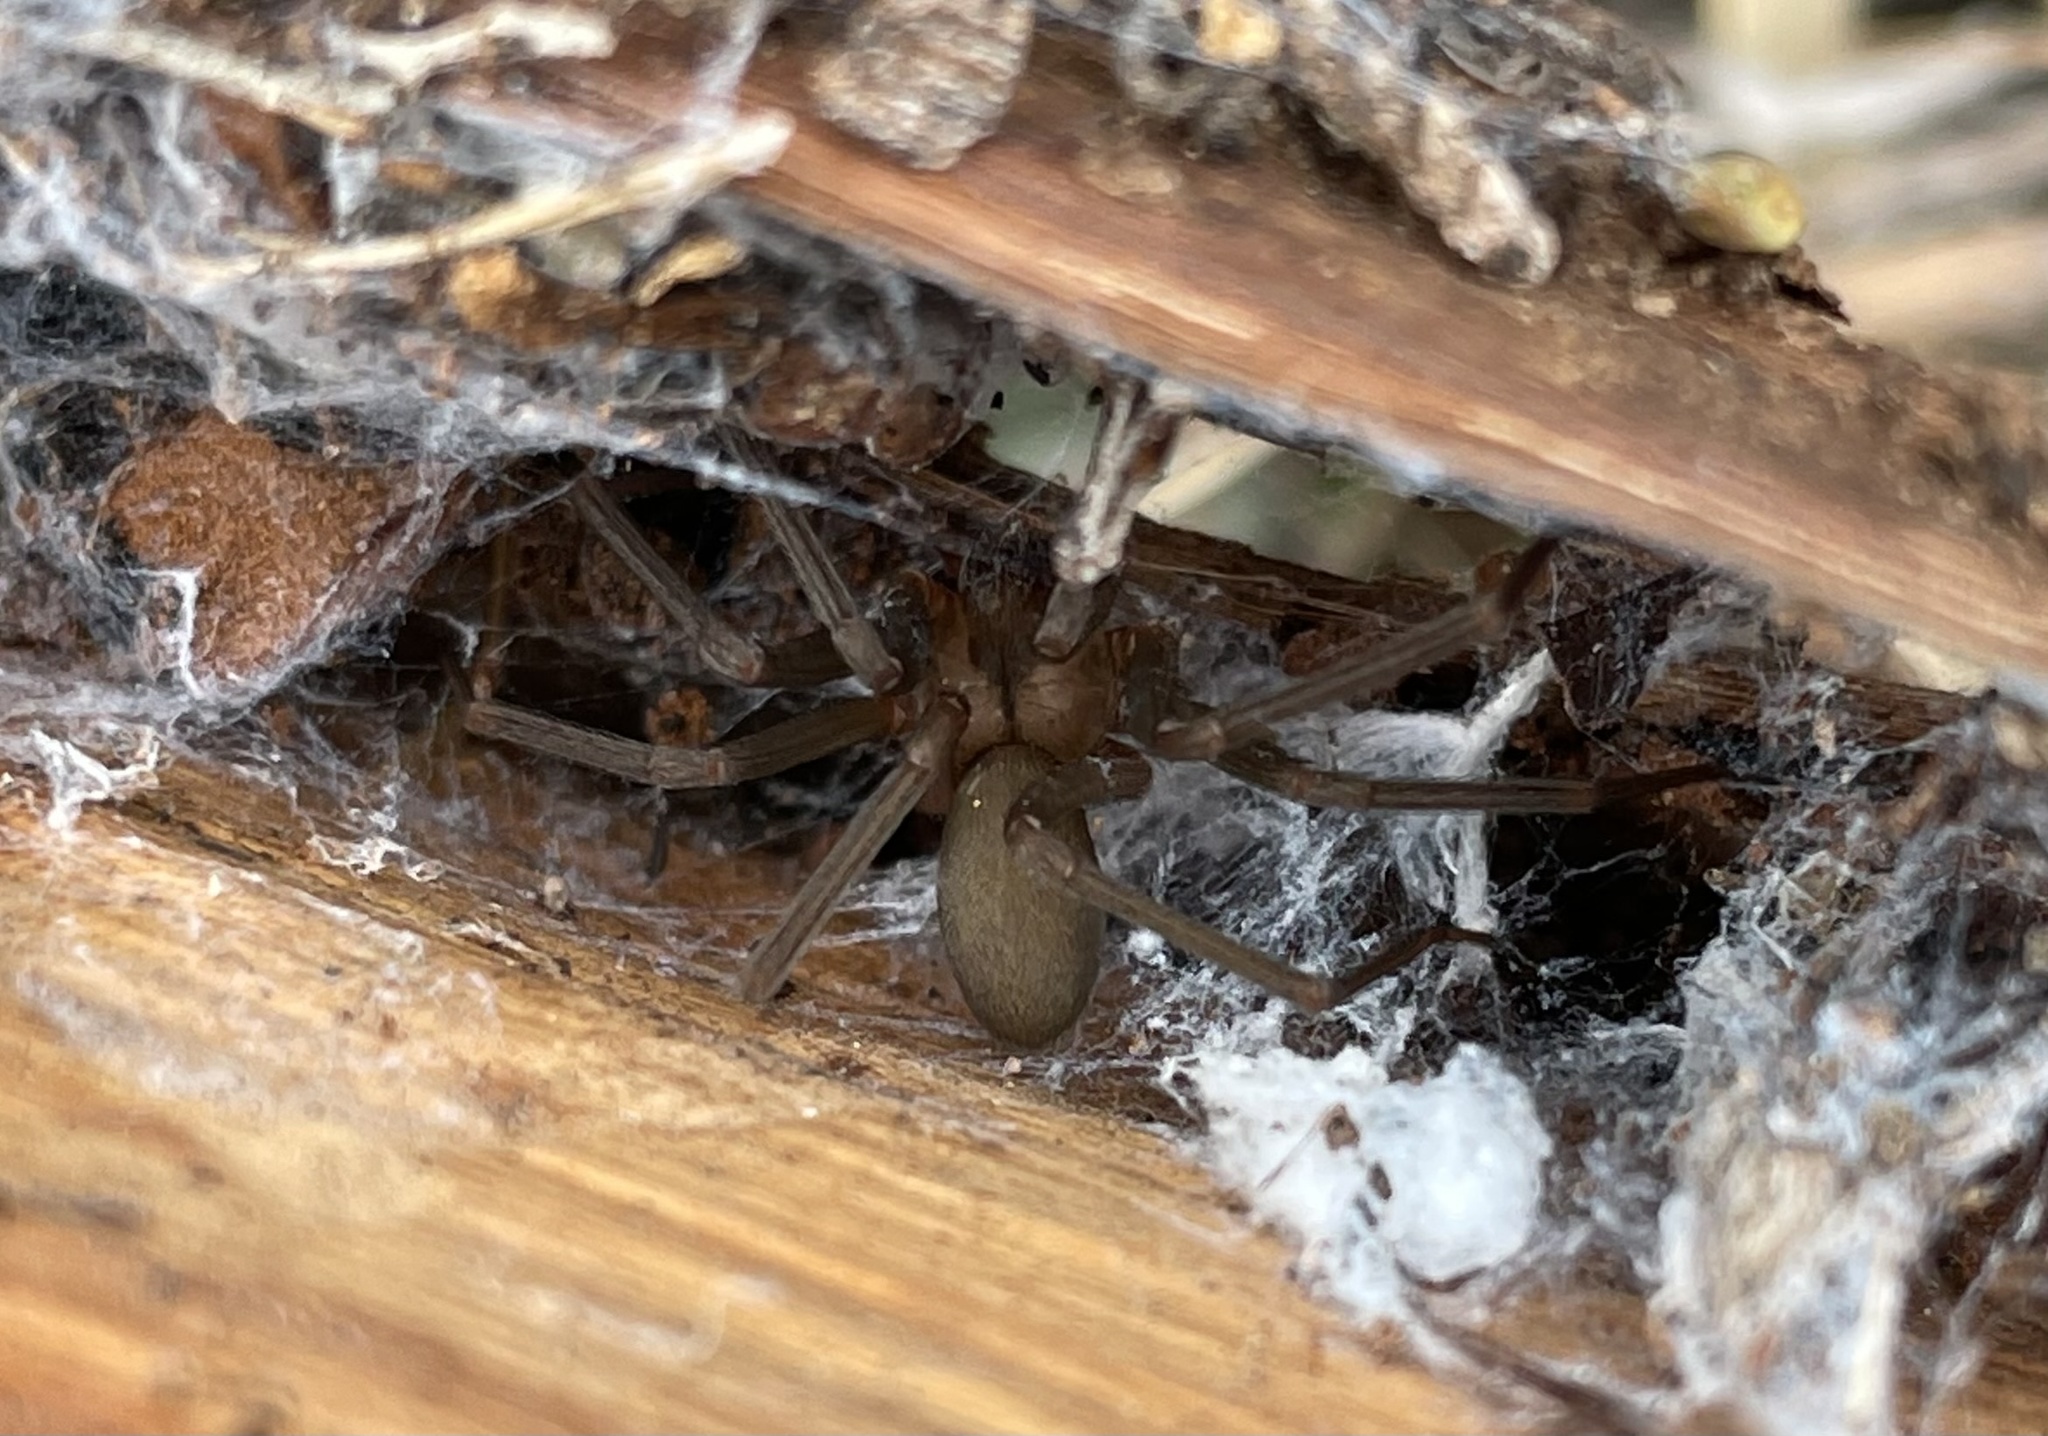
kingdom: Animalia
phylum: Arthropoda
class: Arachnida
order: Araneae
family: Sicariidae
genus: Loxosceles
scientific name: Loxosceles reclusa
